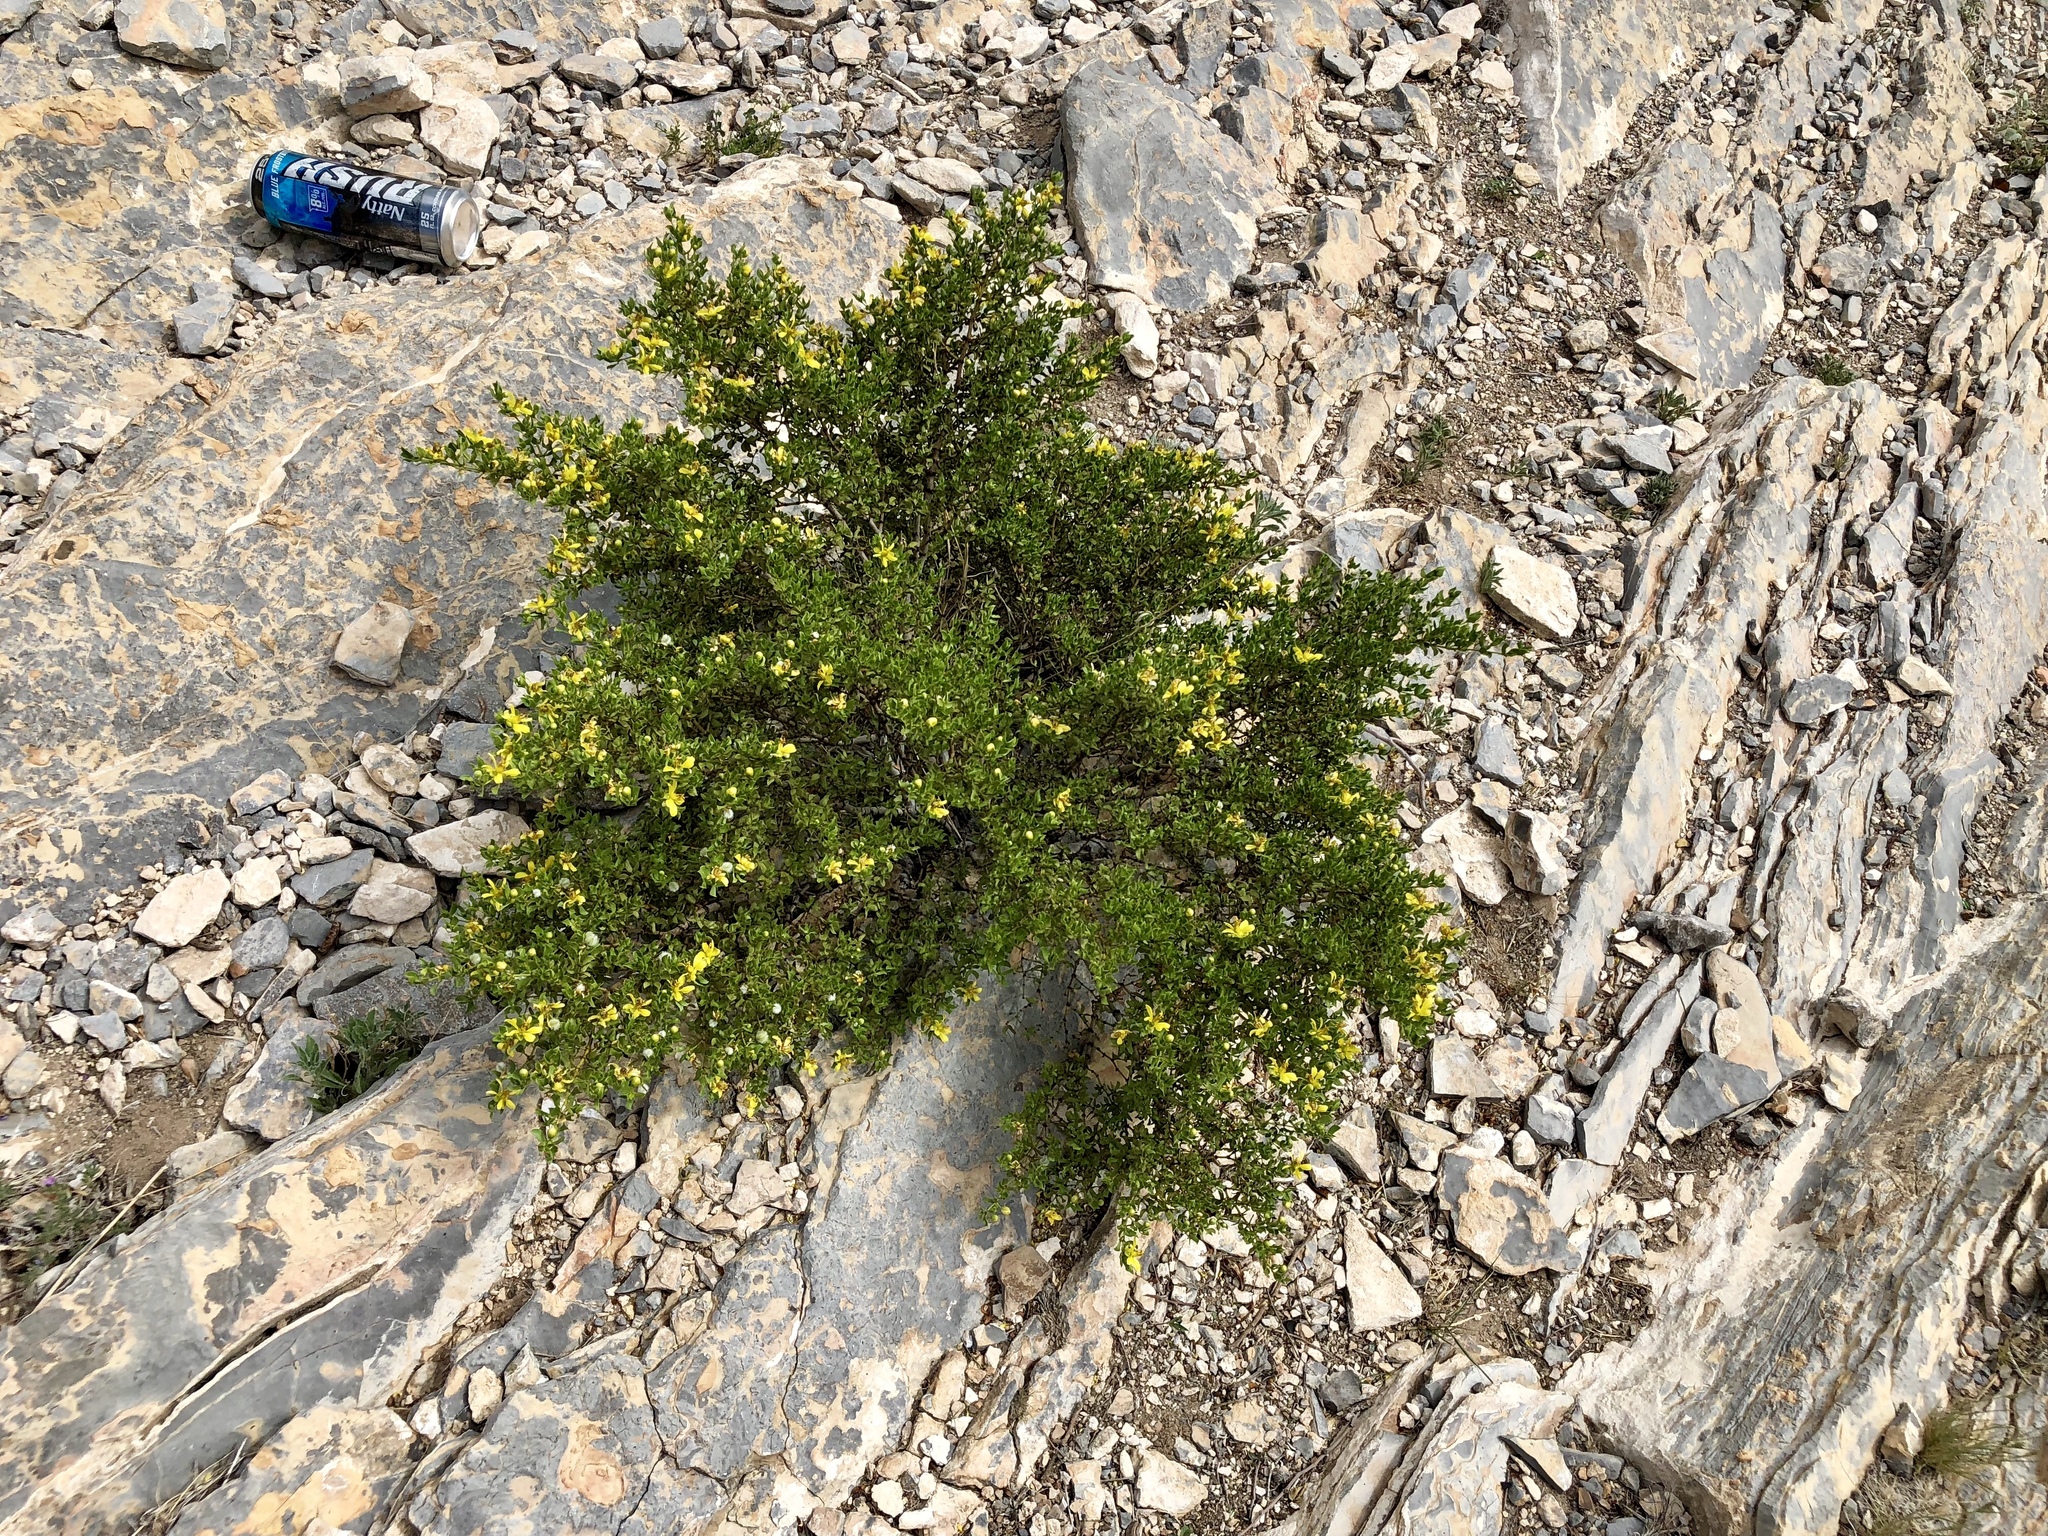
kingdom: Plantae
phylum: Tracheophyta
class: Magnoliopsida
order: Zygophyllales
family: Zygophyllaceae
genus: Larrea
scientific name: Larrea tridentata
